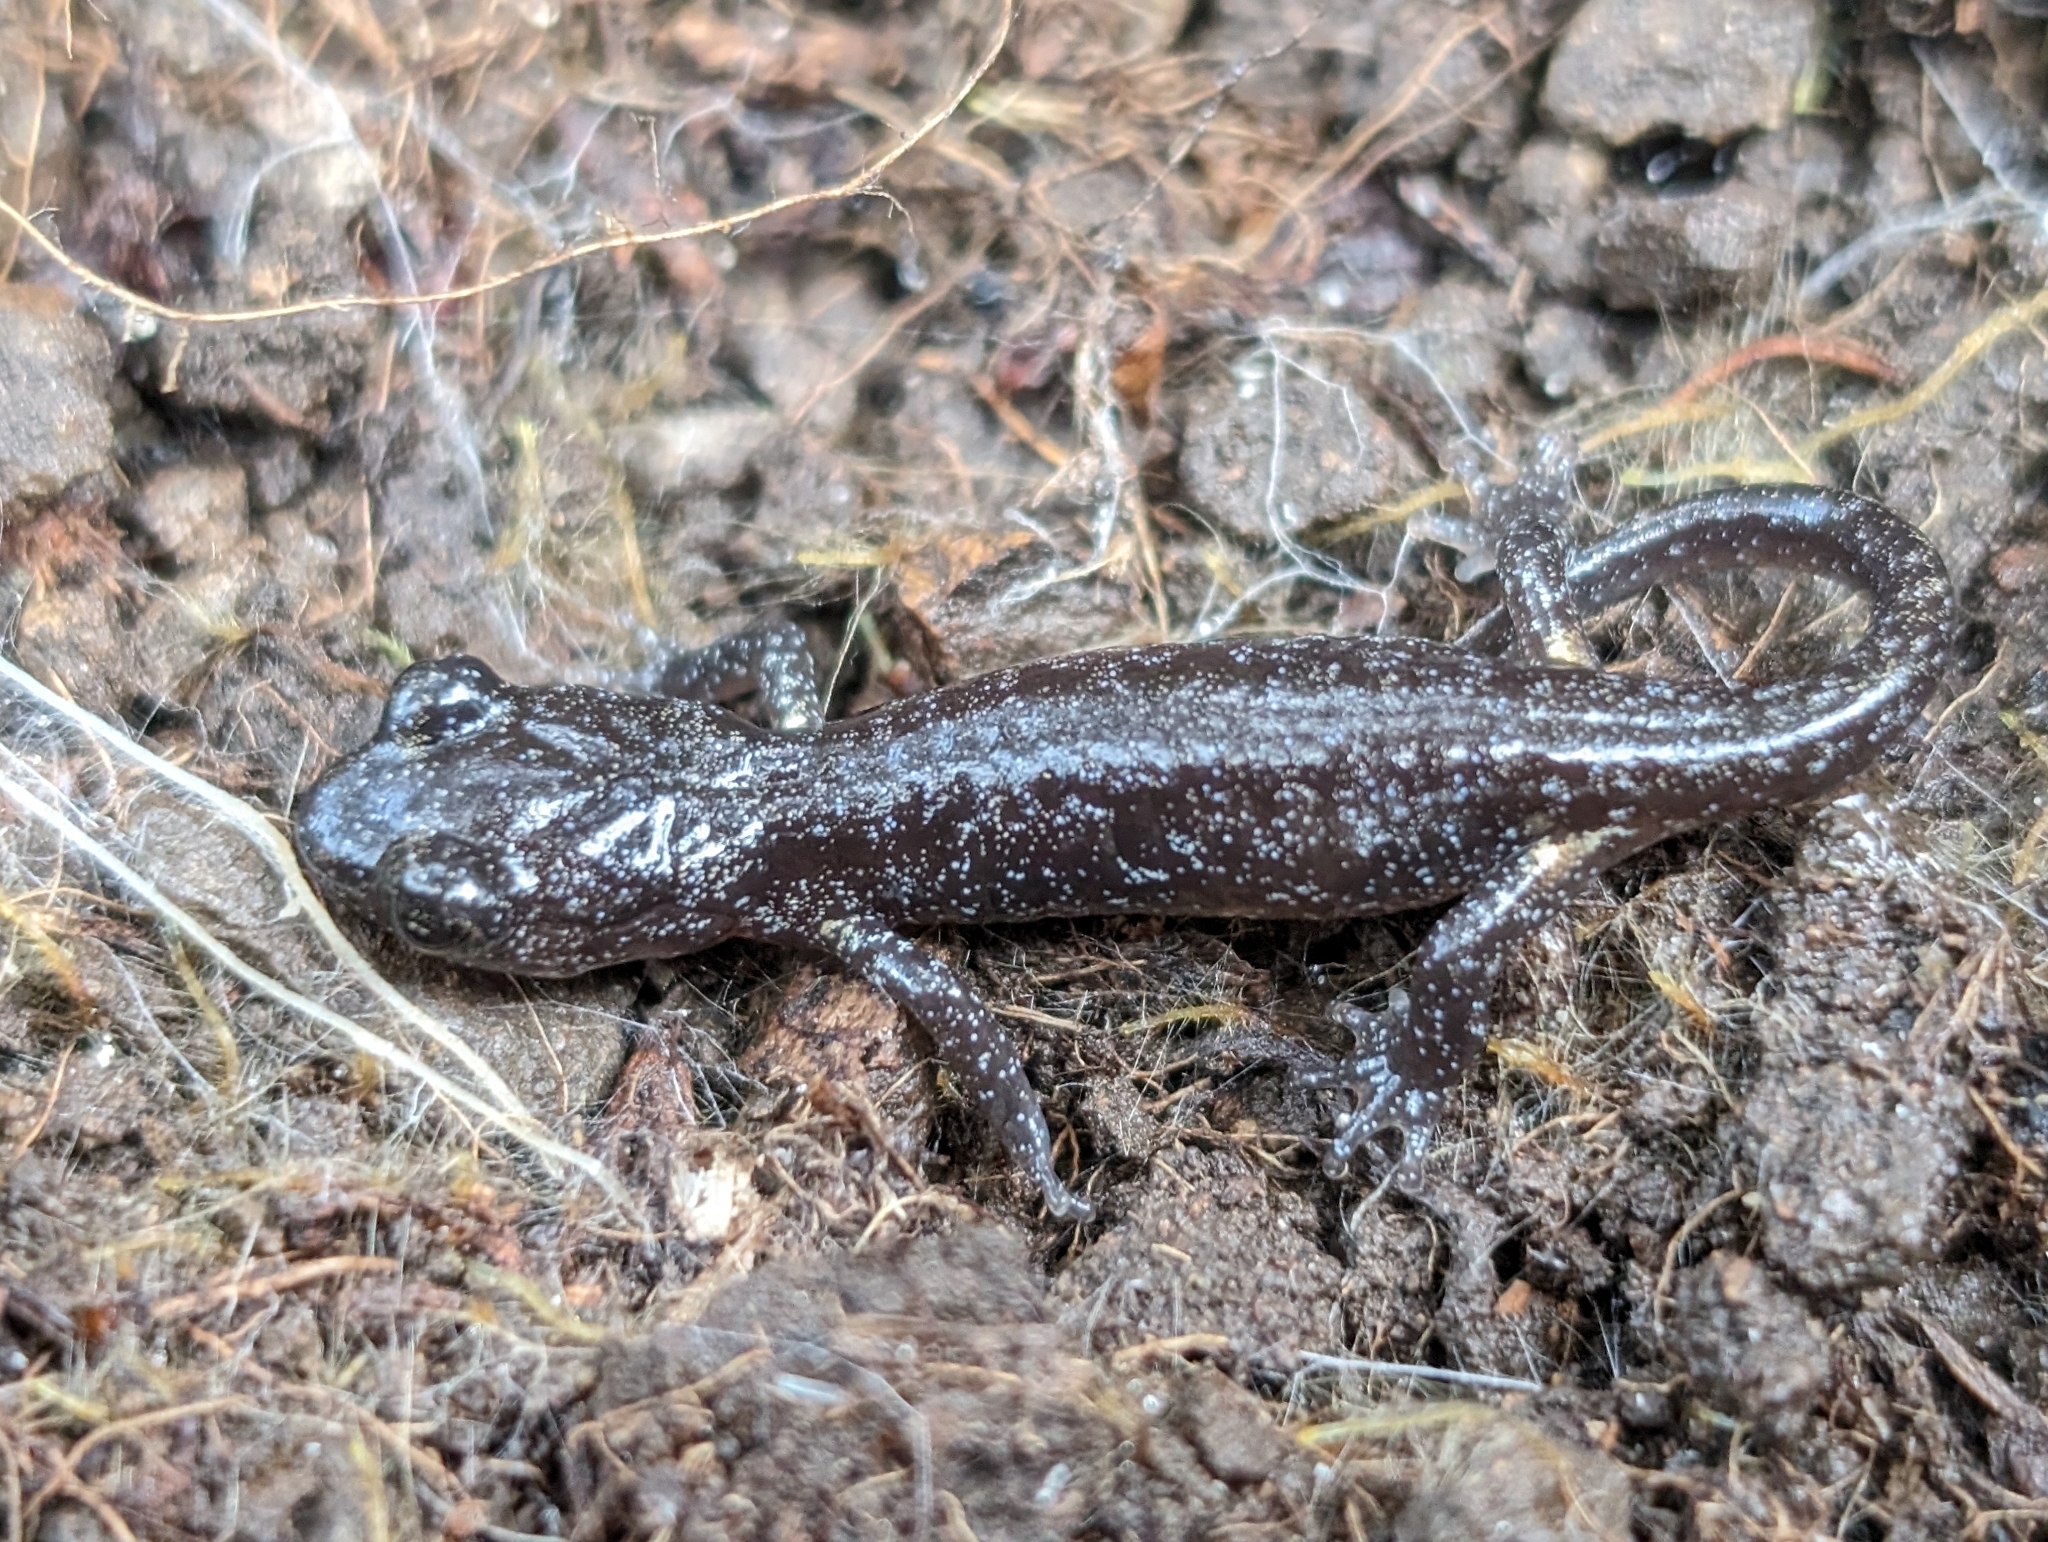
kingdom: Animalia
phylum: Chordata
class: Amphibia
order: Caudata
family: Plethodontidae
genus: Aneides
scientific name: Aneides lugubris
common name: Arboreal salamander
